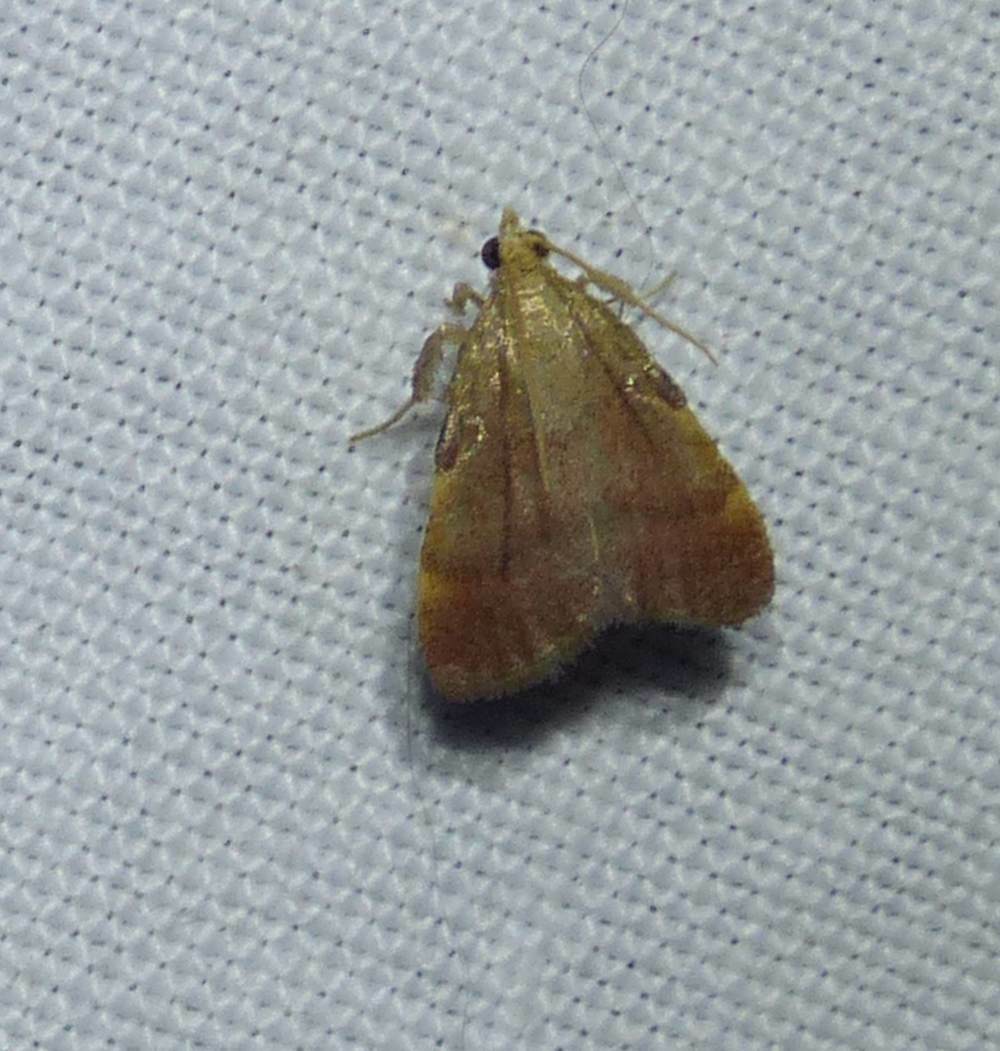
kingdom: Animalia
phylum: Arthropoda
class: Insecta
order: Lepidoptera
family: Pyralidae
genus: Condylolomia
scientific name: Condylolomia participialis
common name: Drab condylolomia moth
